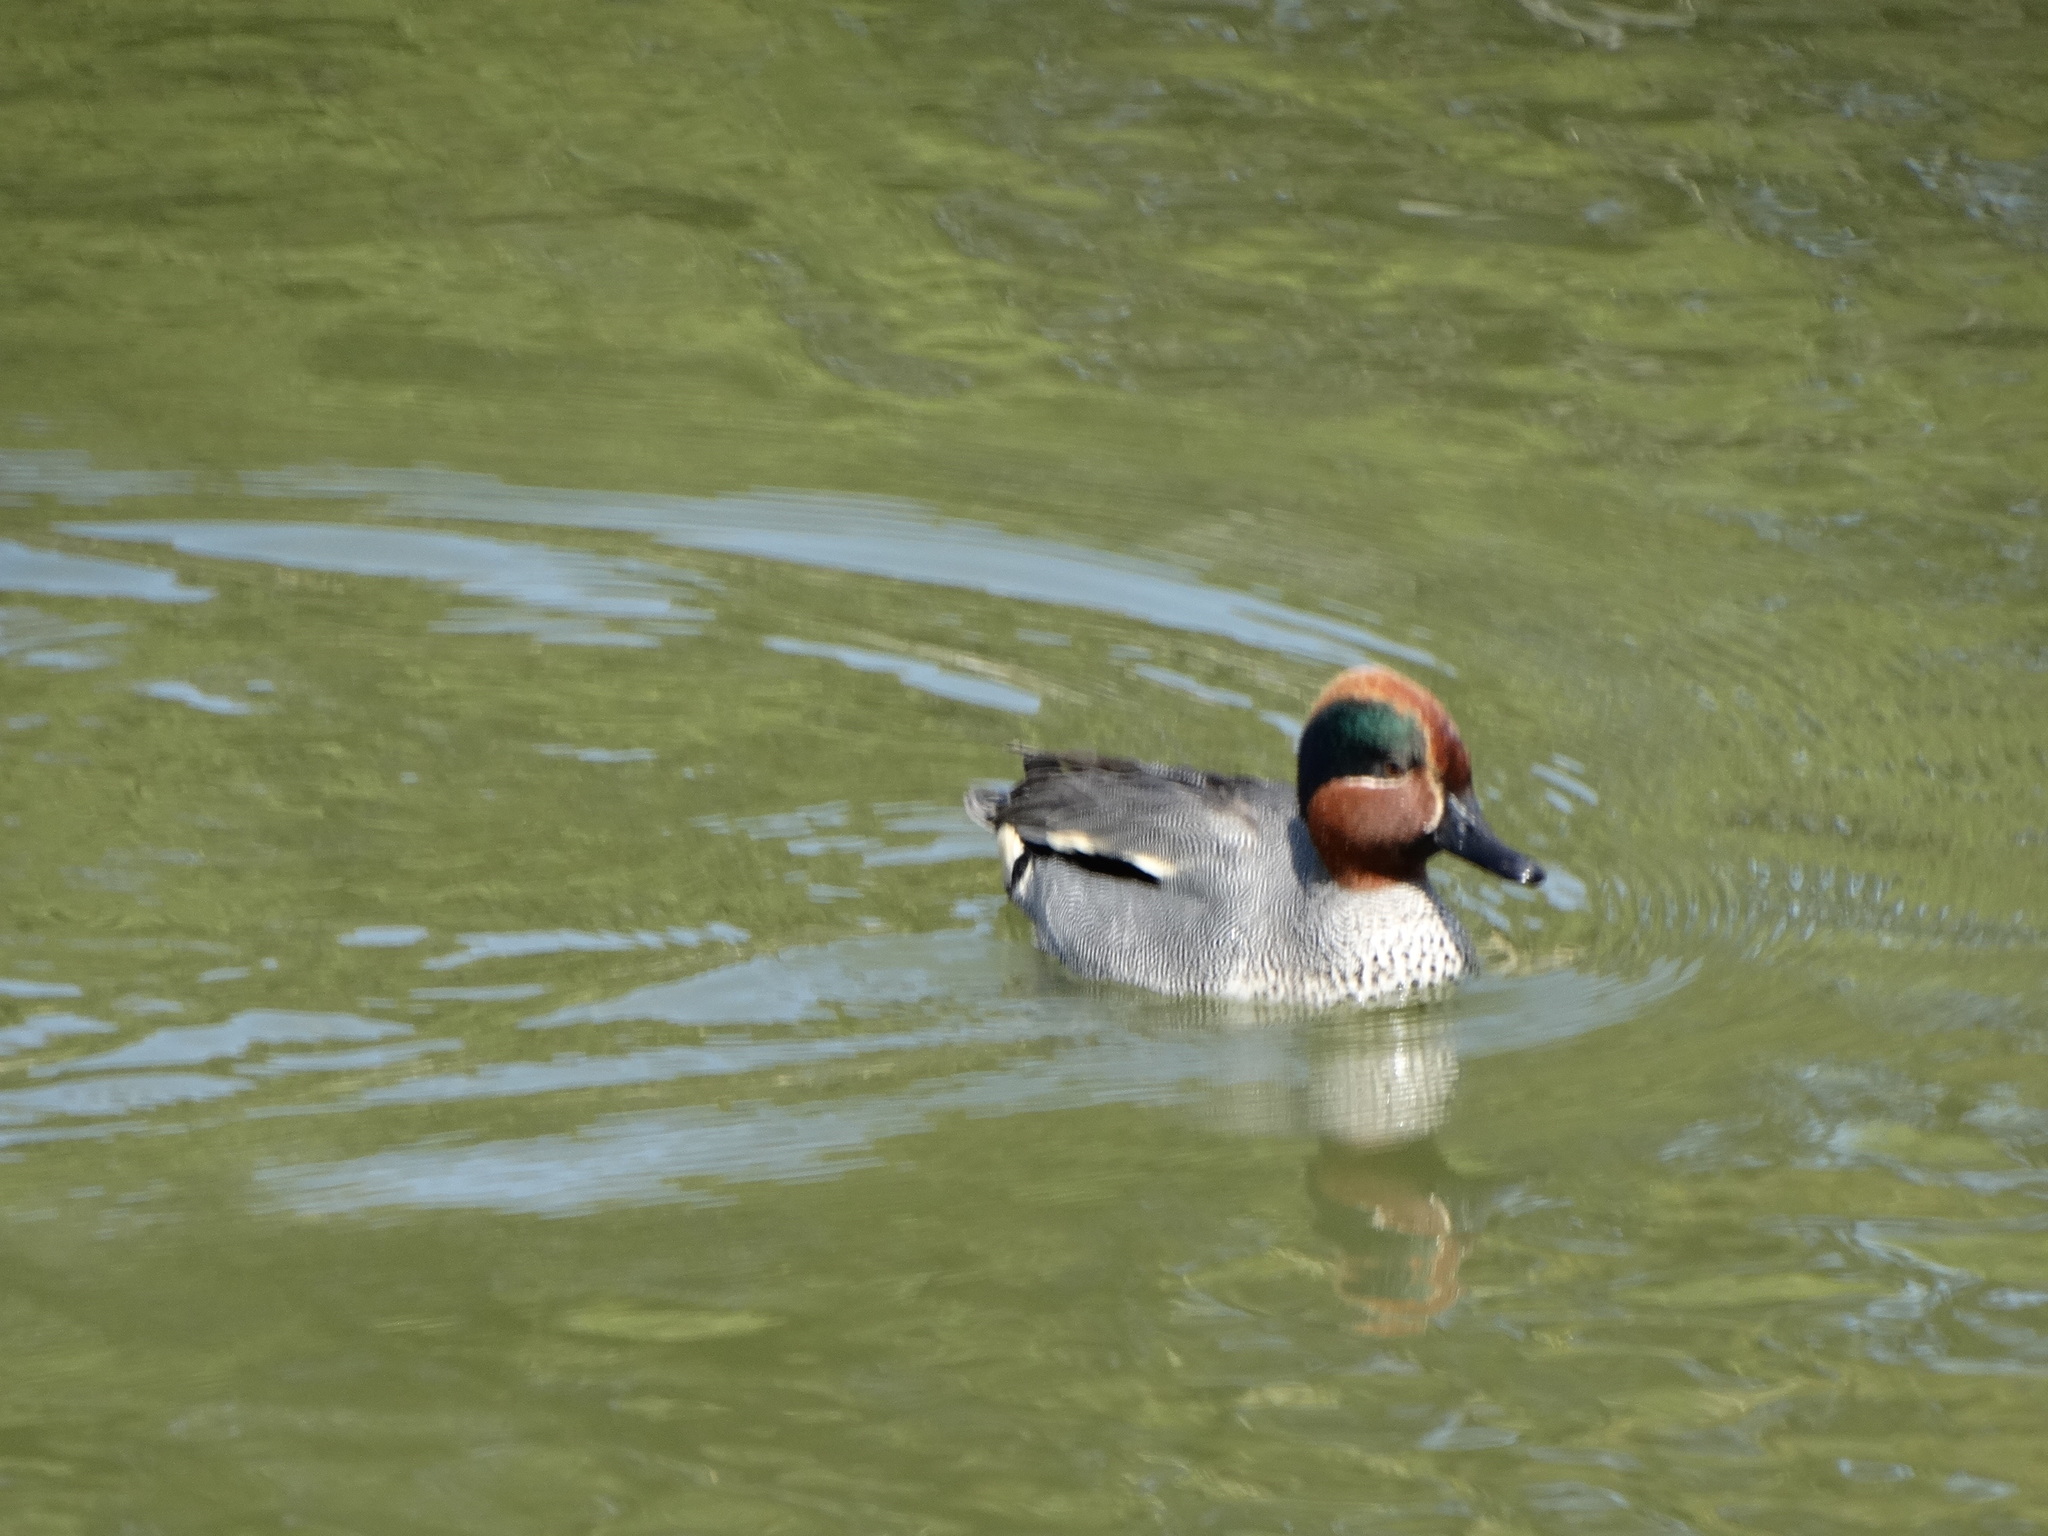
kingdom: Animalia
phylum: Chordata
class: Aves
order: Anseriformes
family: Anatidae
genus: Anas
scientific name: Anas crecca
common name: Eurasian teal
